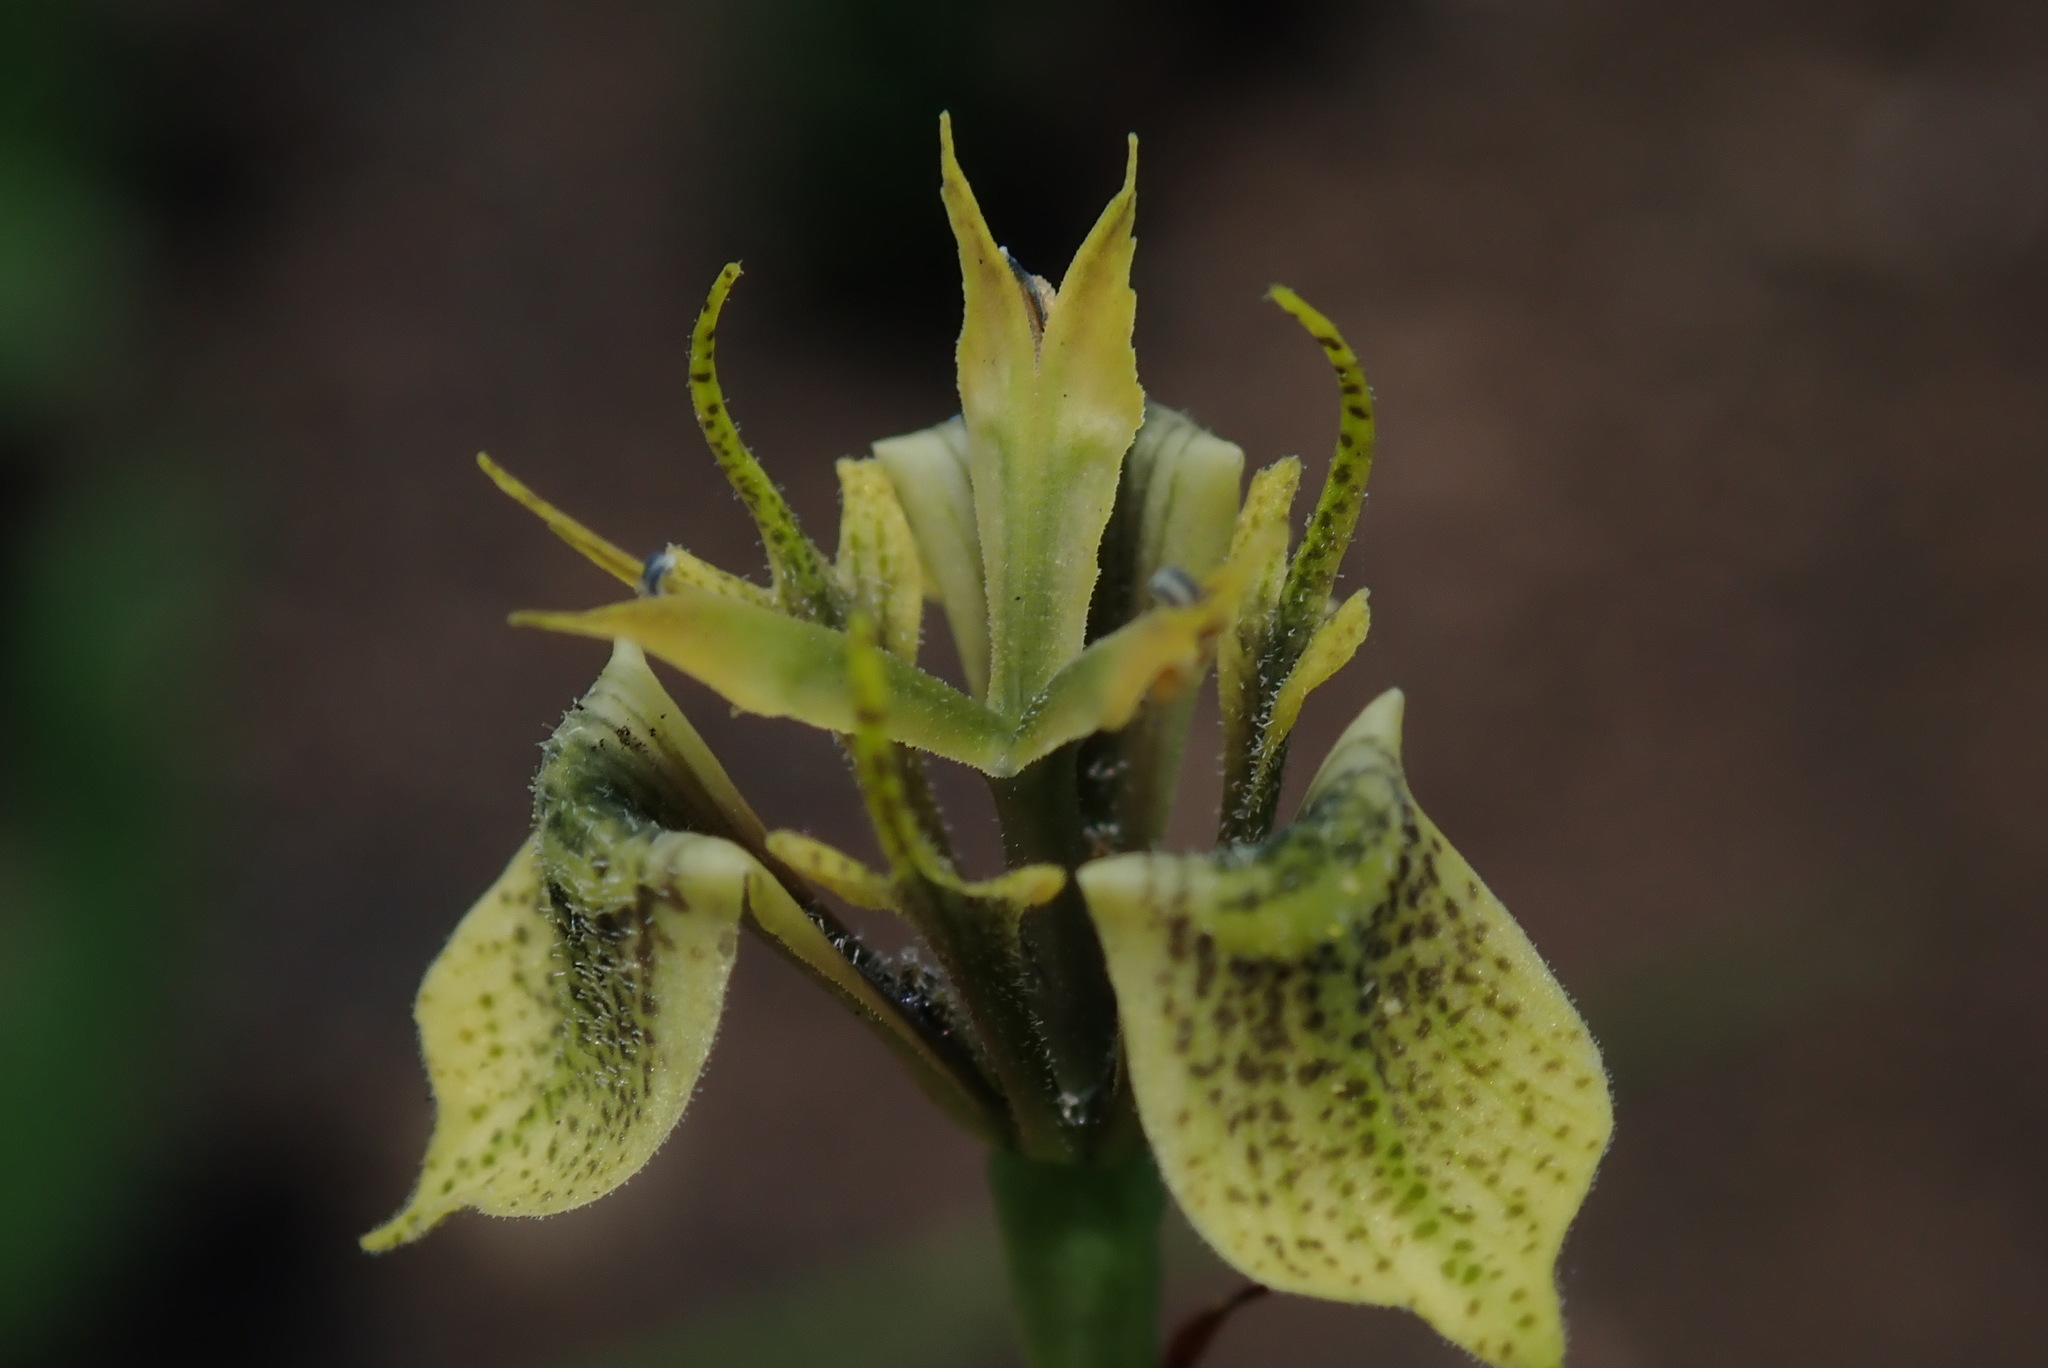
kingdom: Plantae
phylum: Tracheophyta
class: Liliopsida
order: Asparagales
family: Iridaceae
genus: Moraea
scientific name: Moraea trifida
